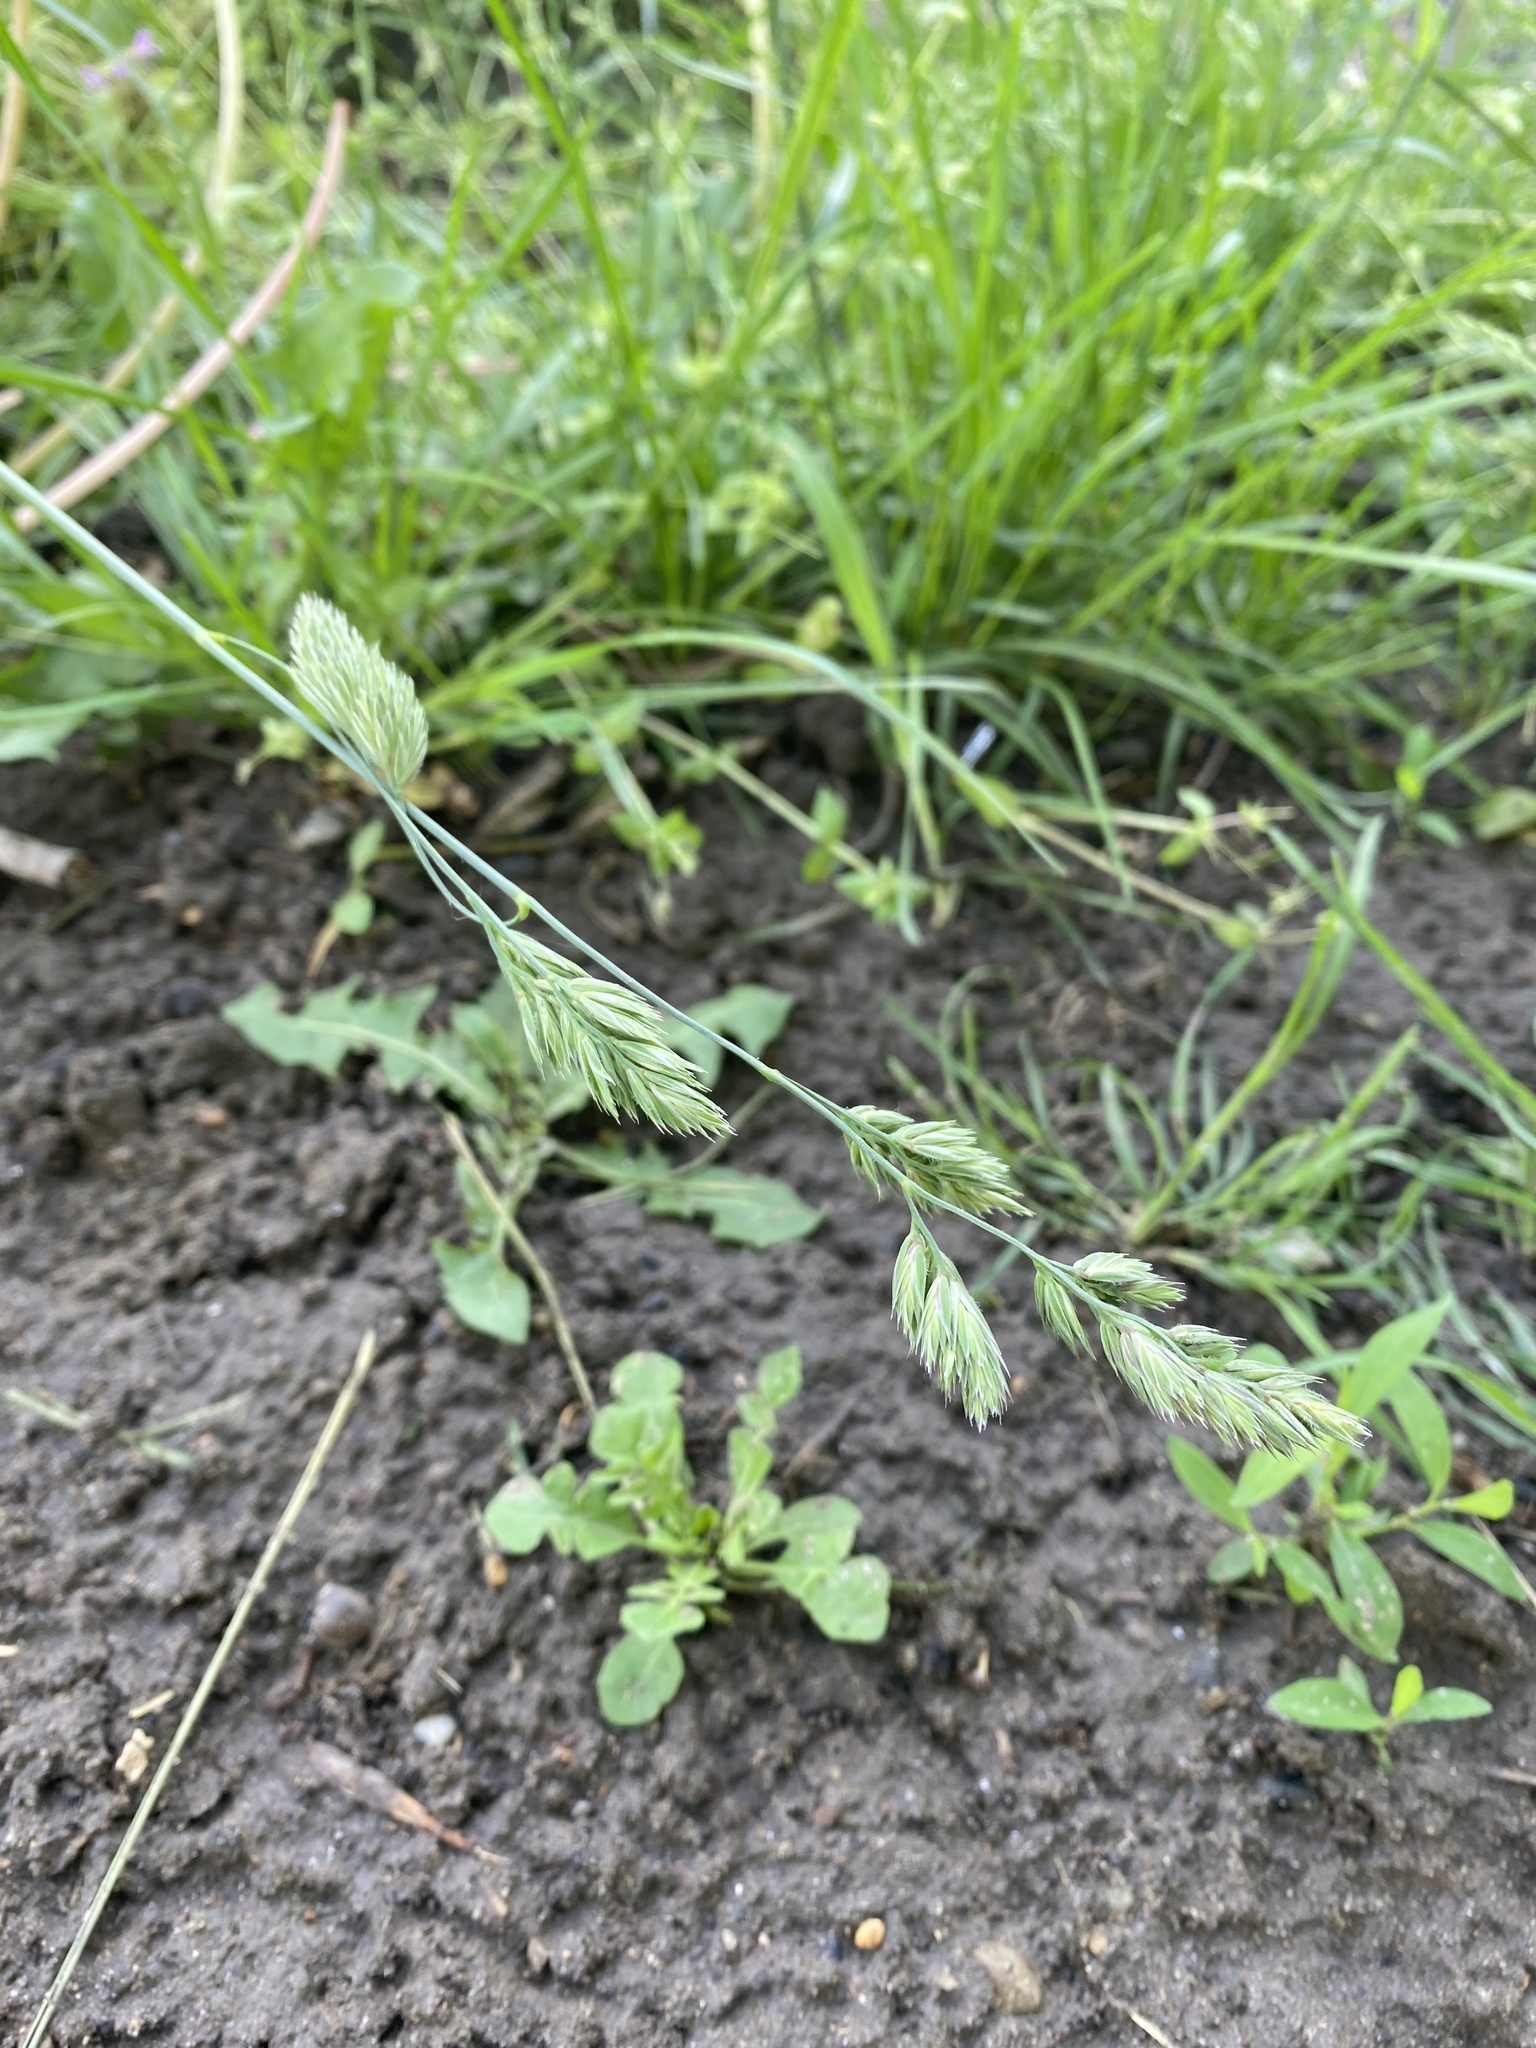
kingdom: Plantae
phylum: Tracheophyta
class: Liliopsida
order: Poales
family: Poaceae
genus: Dactylis
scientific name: Dactylis glomerata
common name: Orchardgrass
